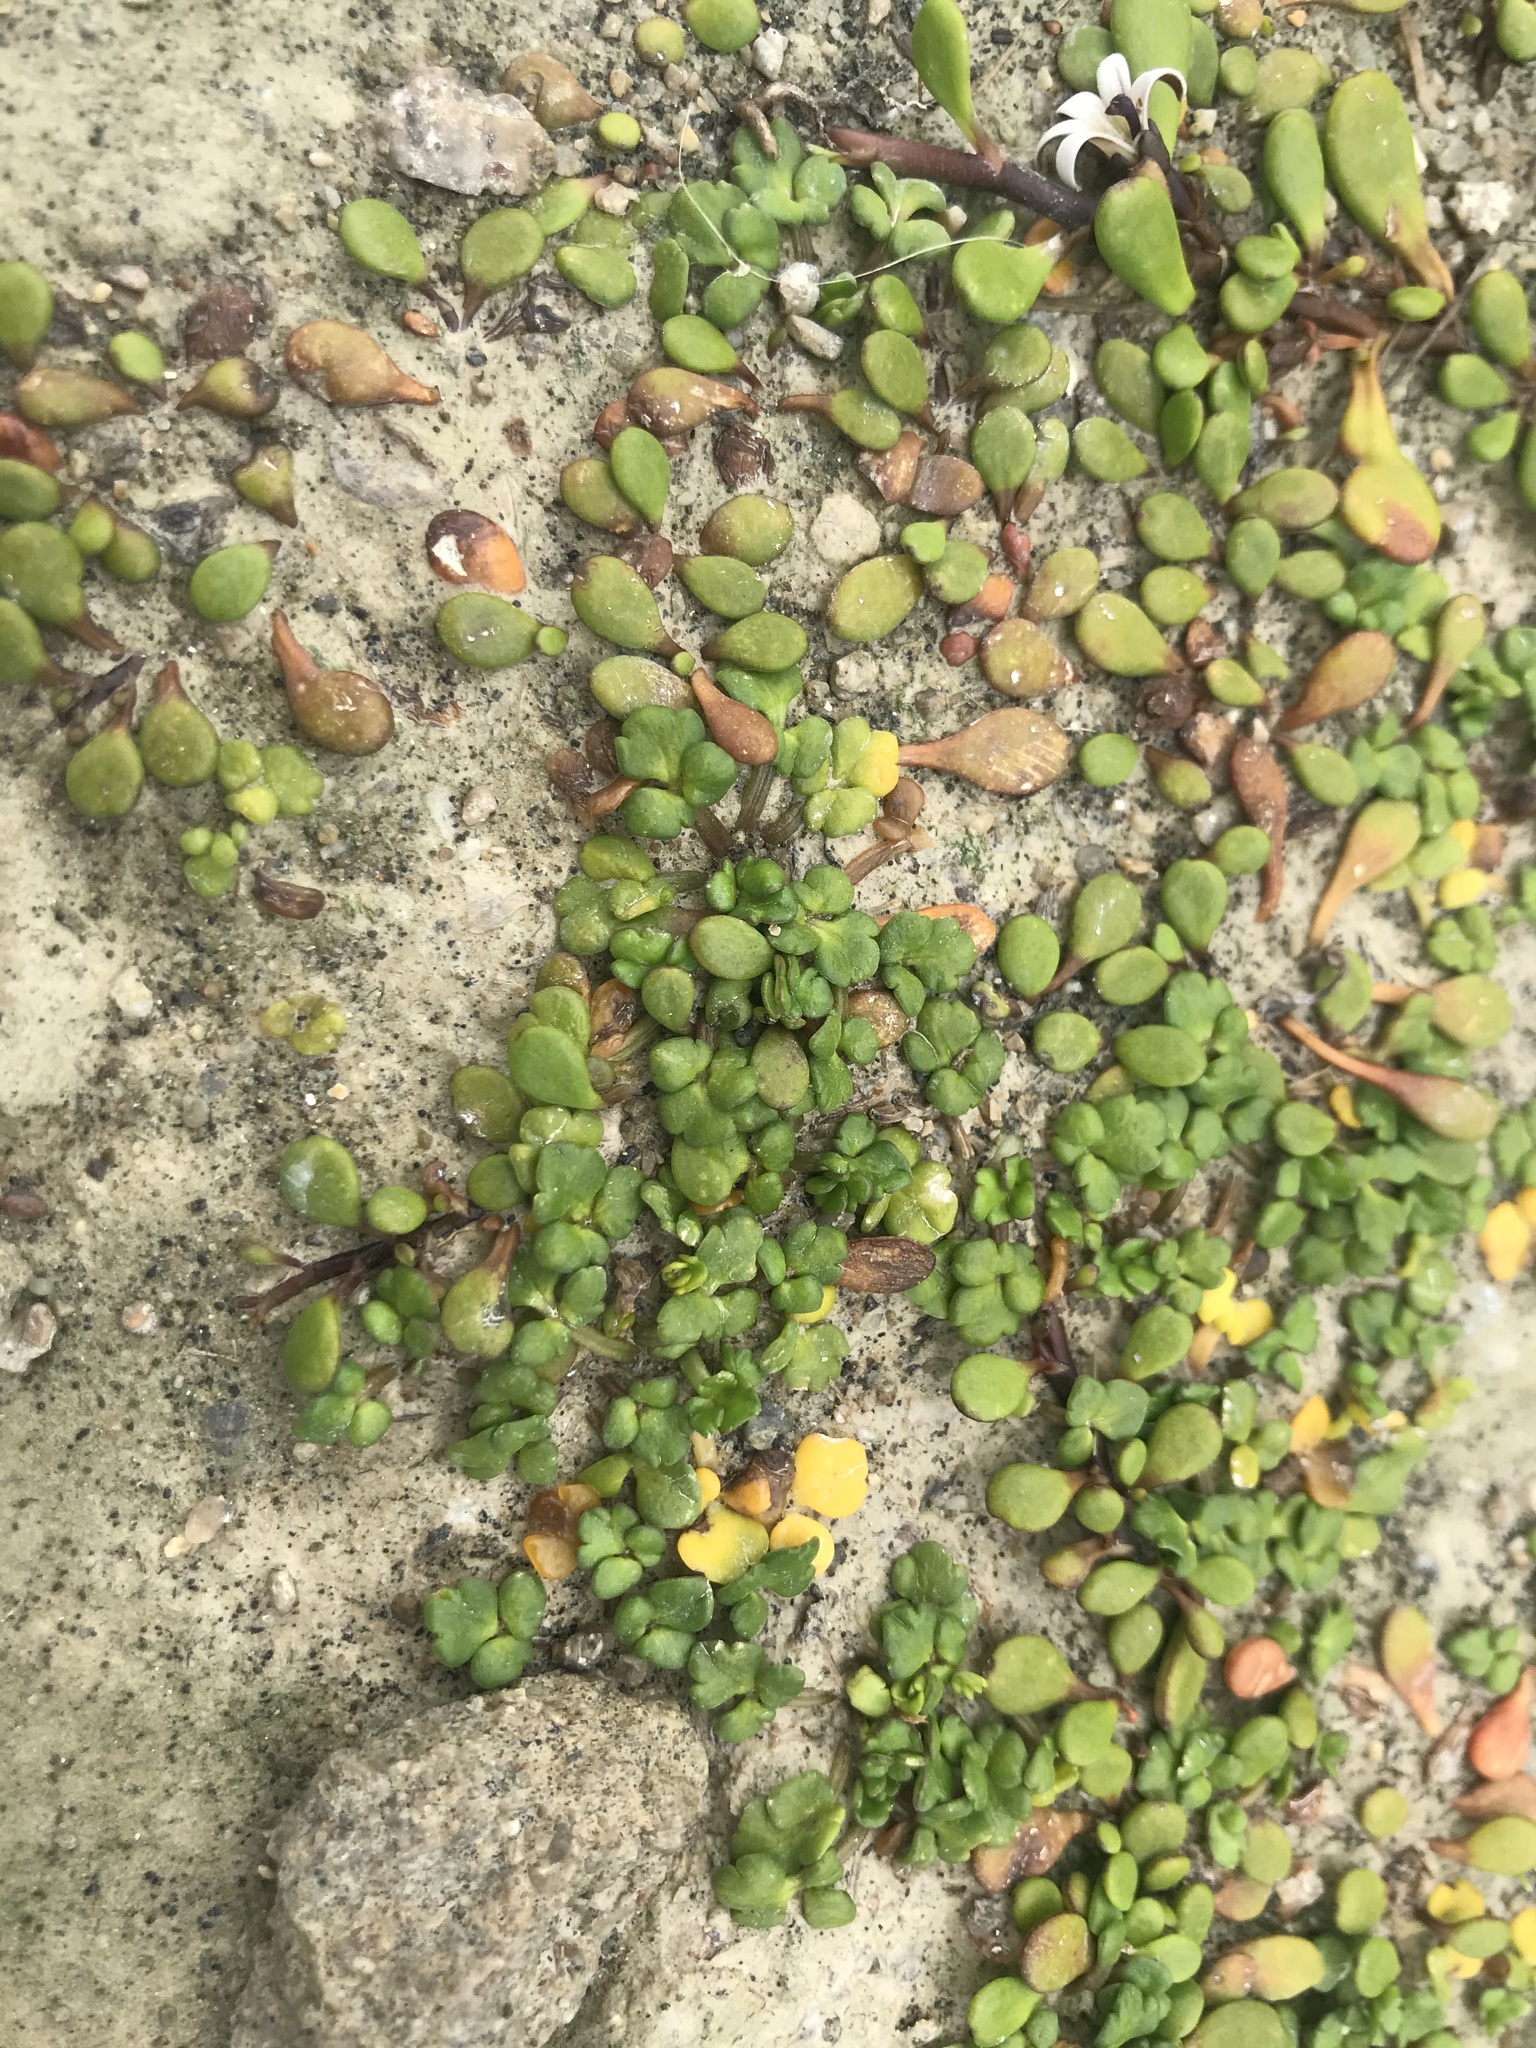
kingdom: Plantae
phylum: Tracheophyta
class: Magnoliopsida
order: Ranunculales
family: Ranunculaceae
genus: Ranunculus
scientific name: Ranunculus acaulis
